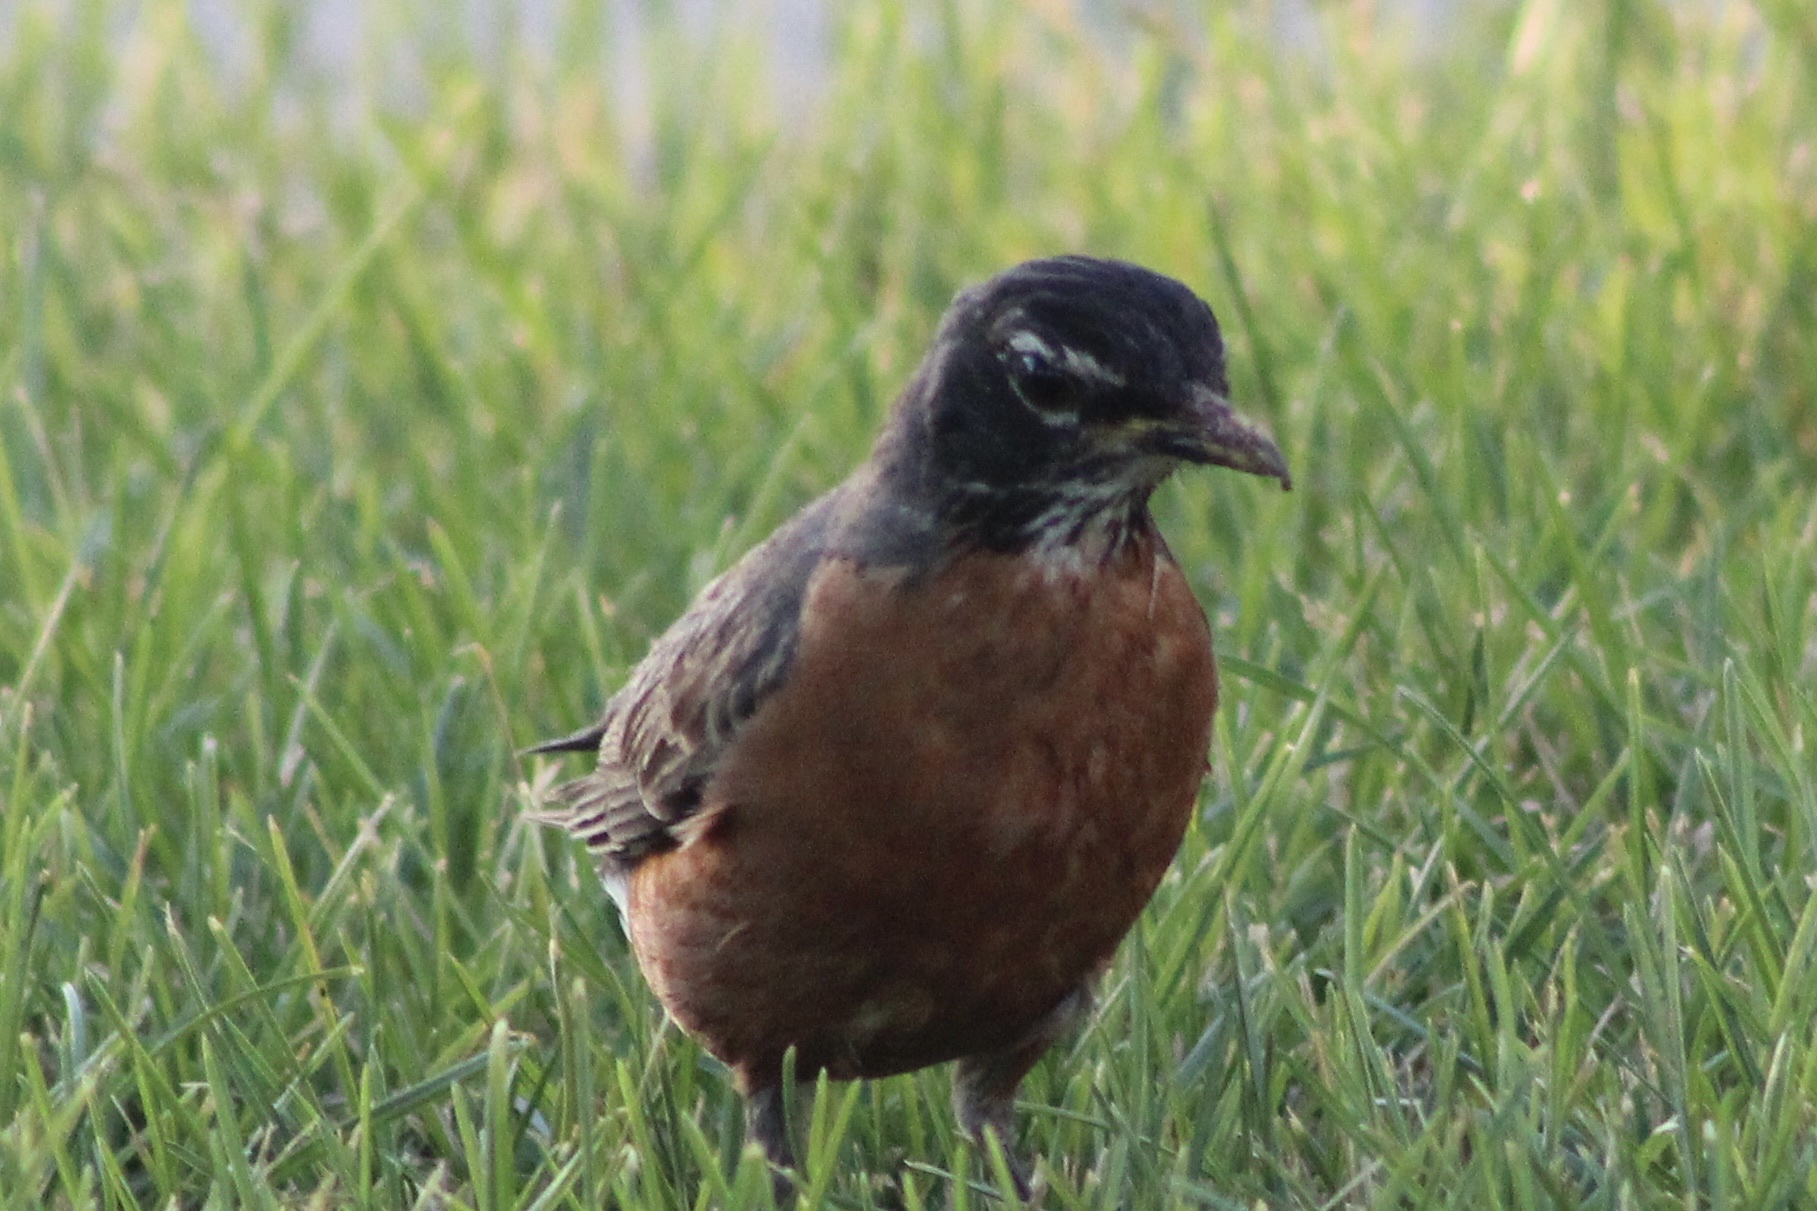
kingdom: Animalia
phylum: Chordata
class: Aves
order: Passeriformes
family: Turdidae
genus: Turdus
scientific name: Turdus migratorius
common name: American robin
